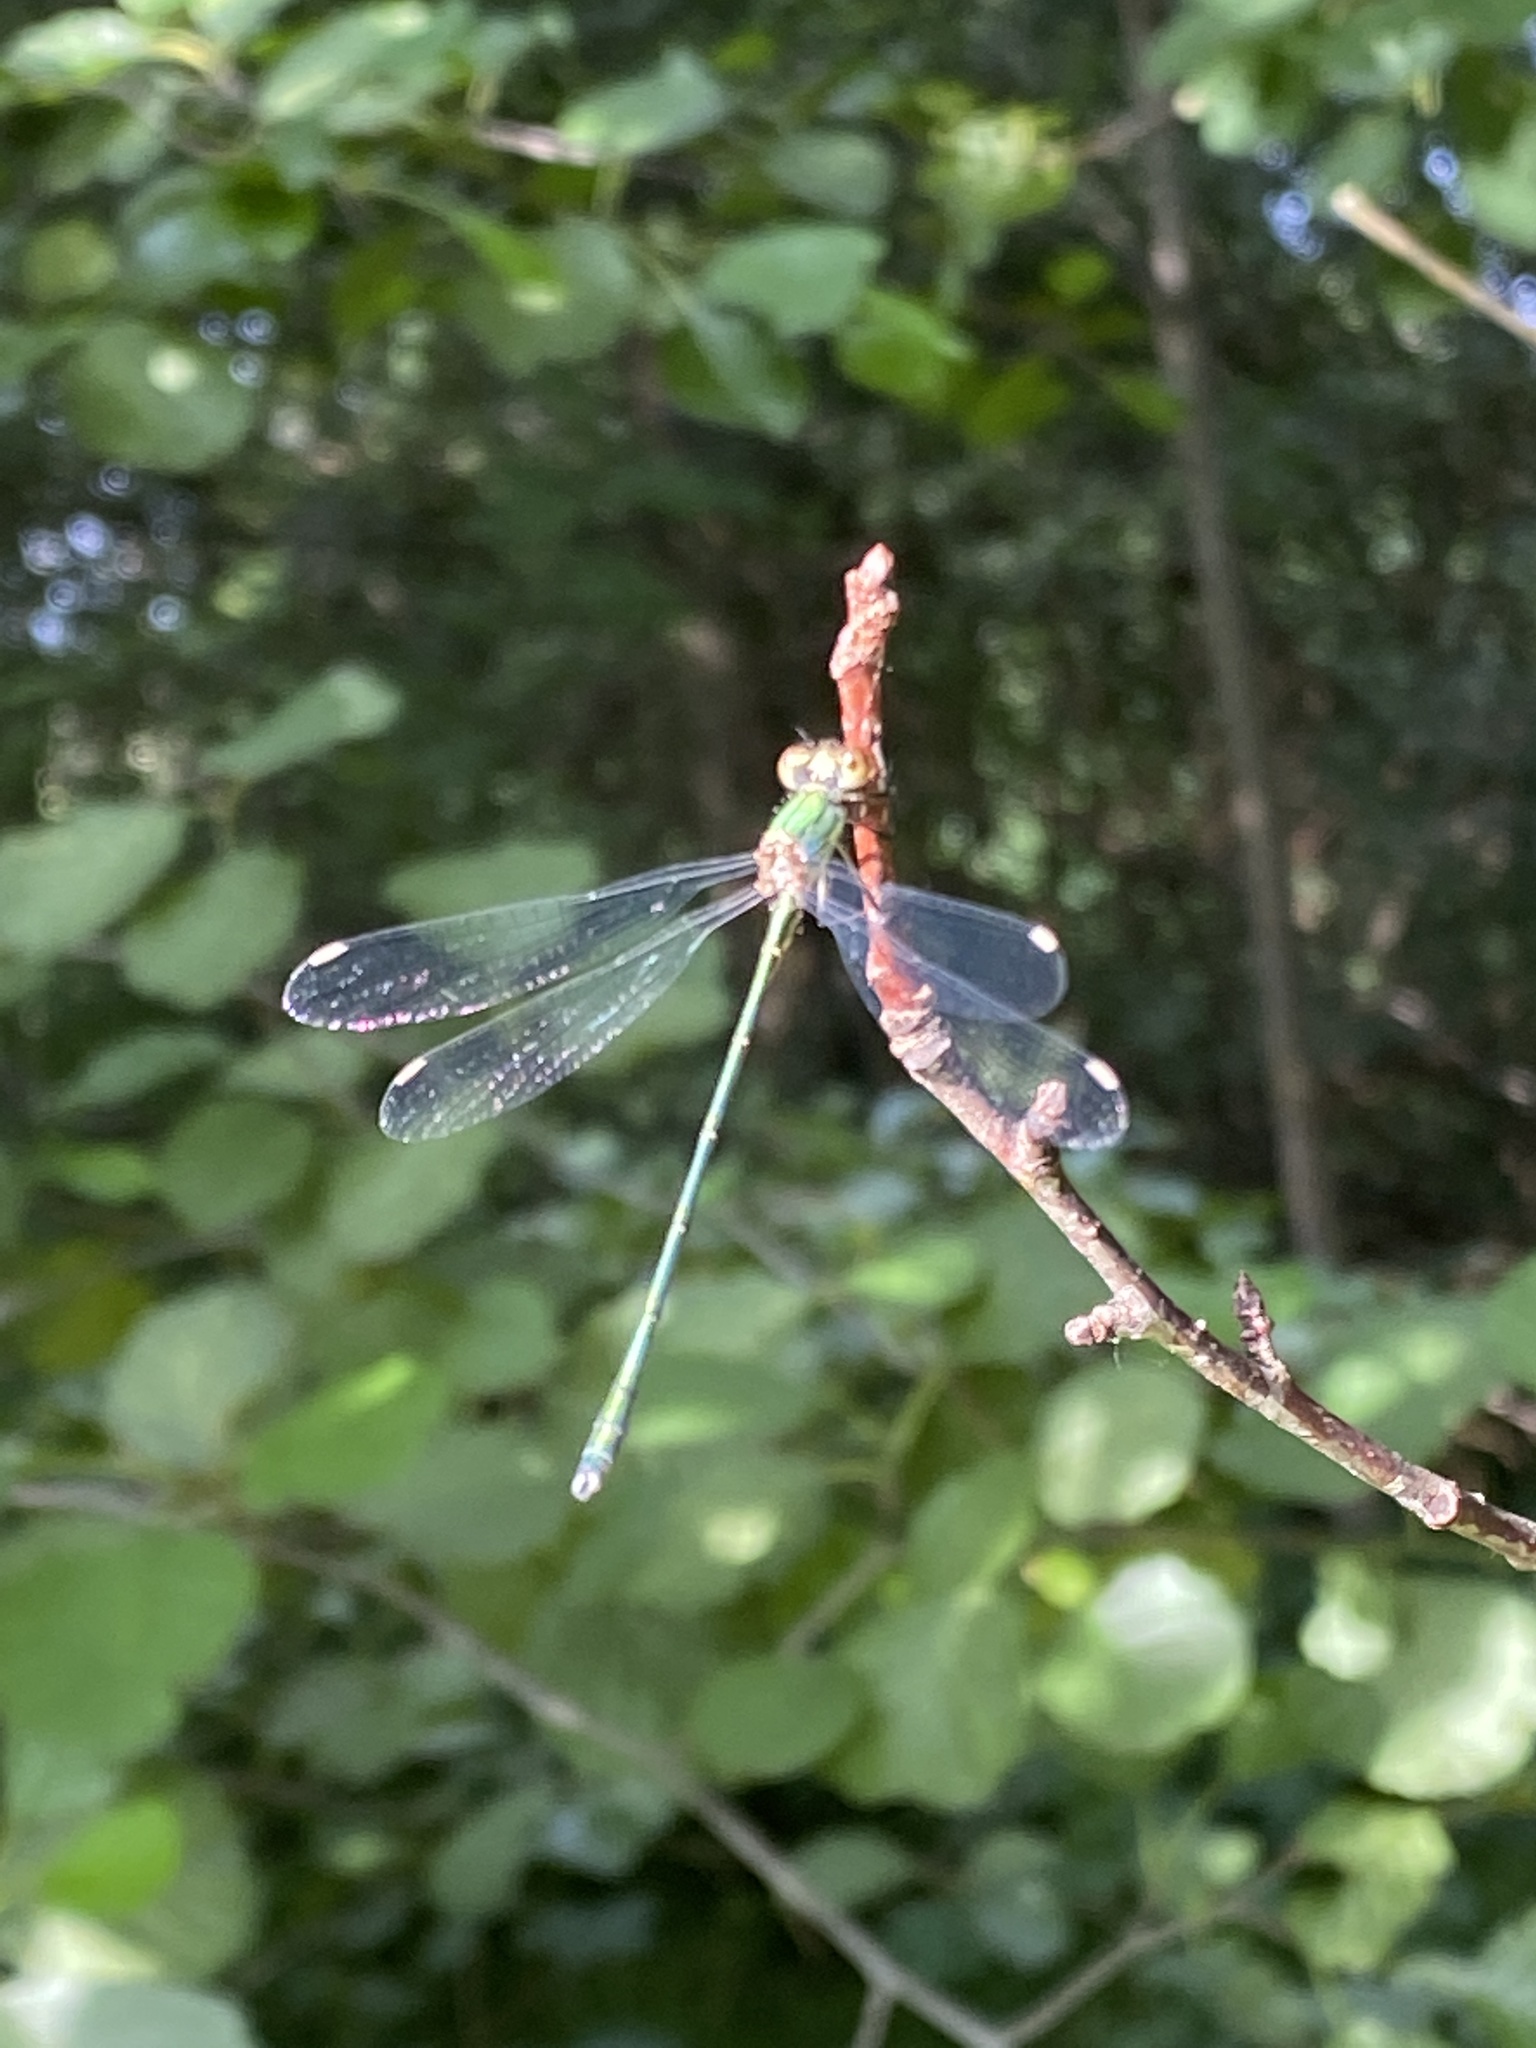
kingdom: Animalia
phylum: Arthropoda
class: Insecta
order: Odonata
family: Lestidae
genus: Chalcolestes
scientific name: Chalcolestes viridis
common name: Green emerald damselfly
